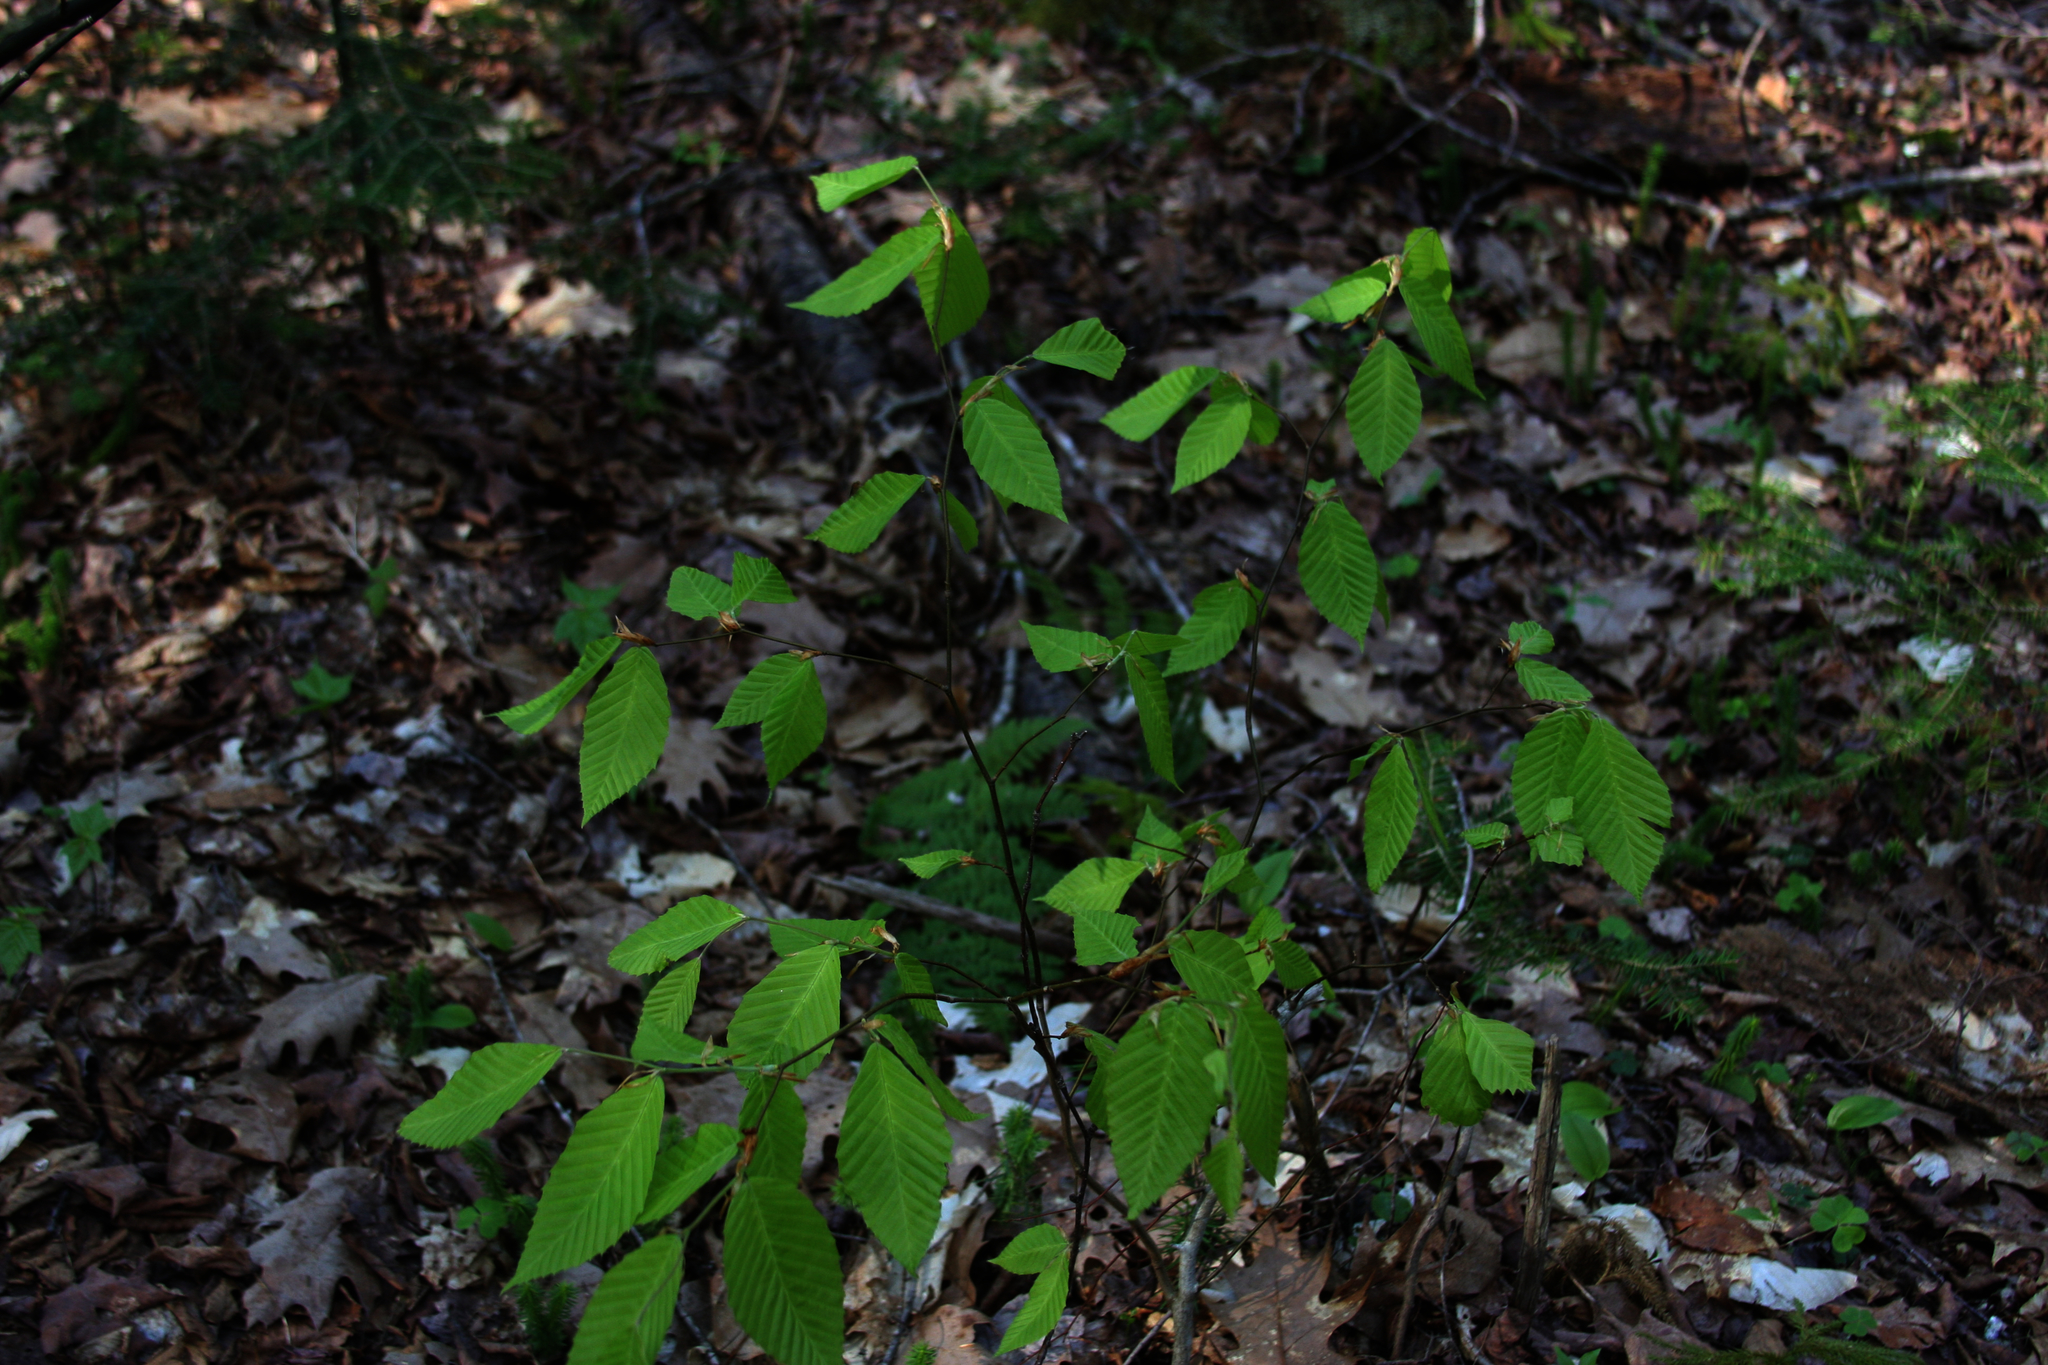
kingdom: Plantae
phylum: Tracheophyta
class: Magnoliopsida
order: Fagales
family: Fagaceae
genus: Fagus
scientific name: Fagus grandifolia
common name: American beech
